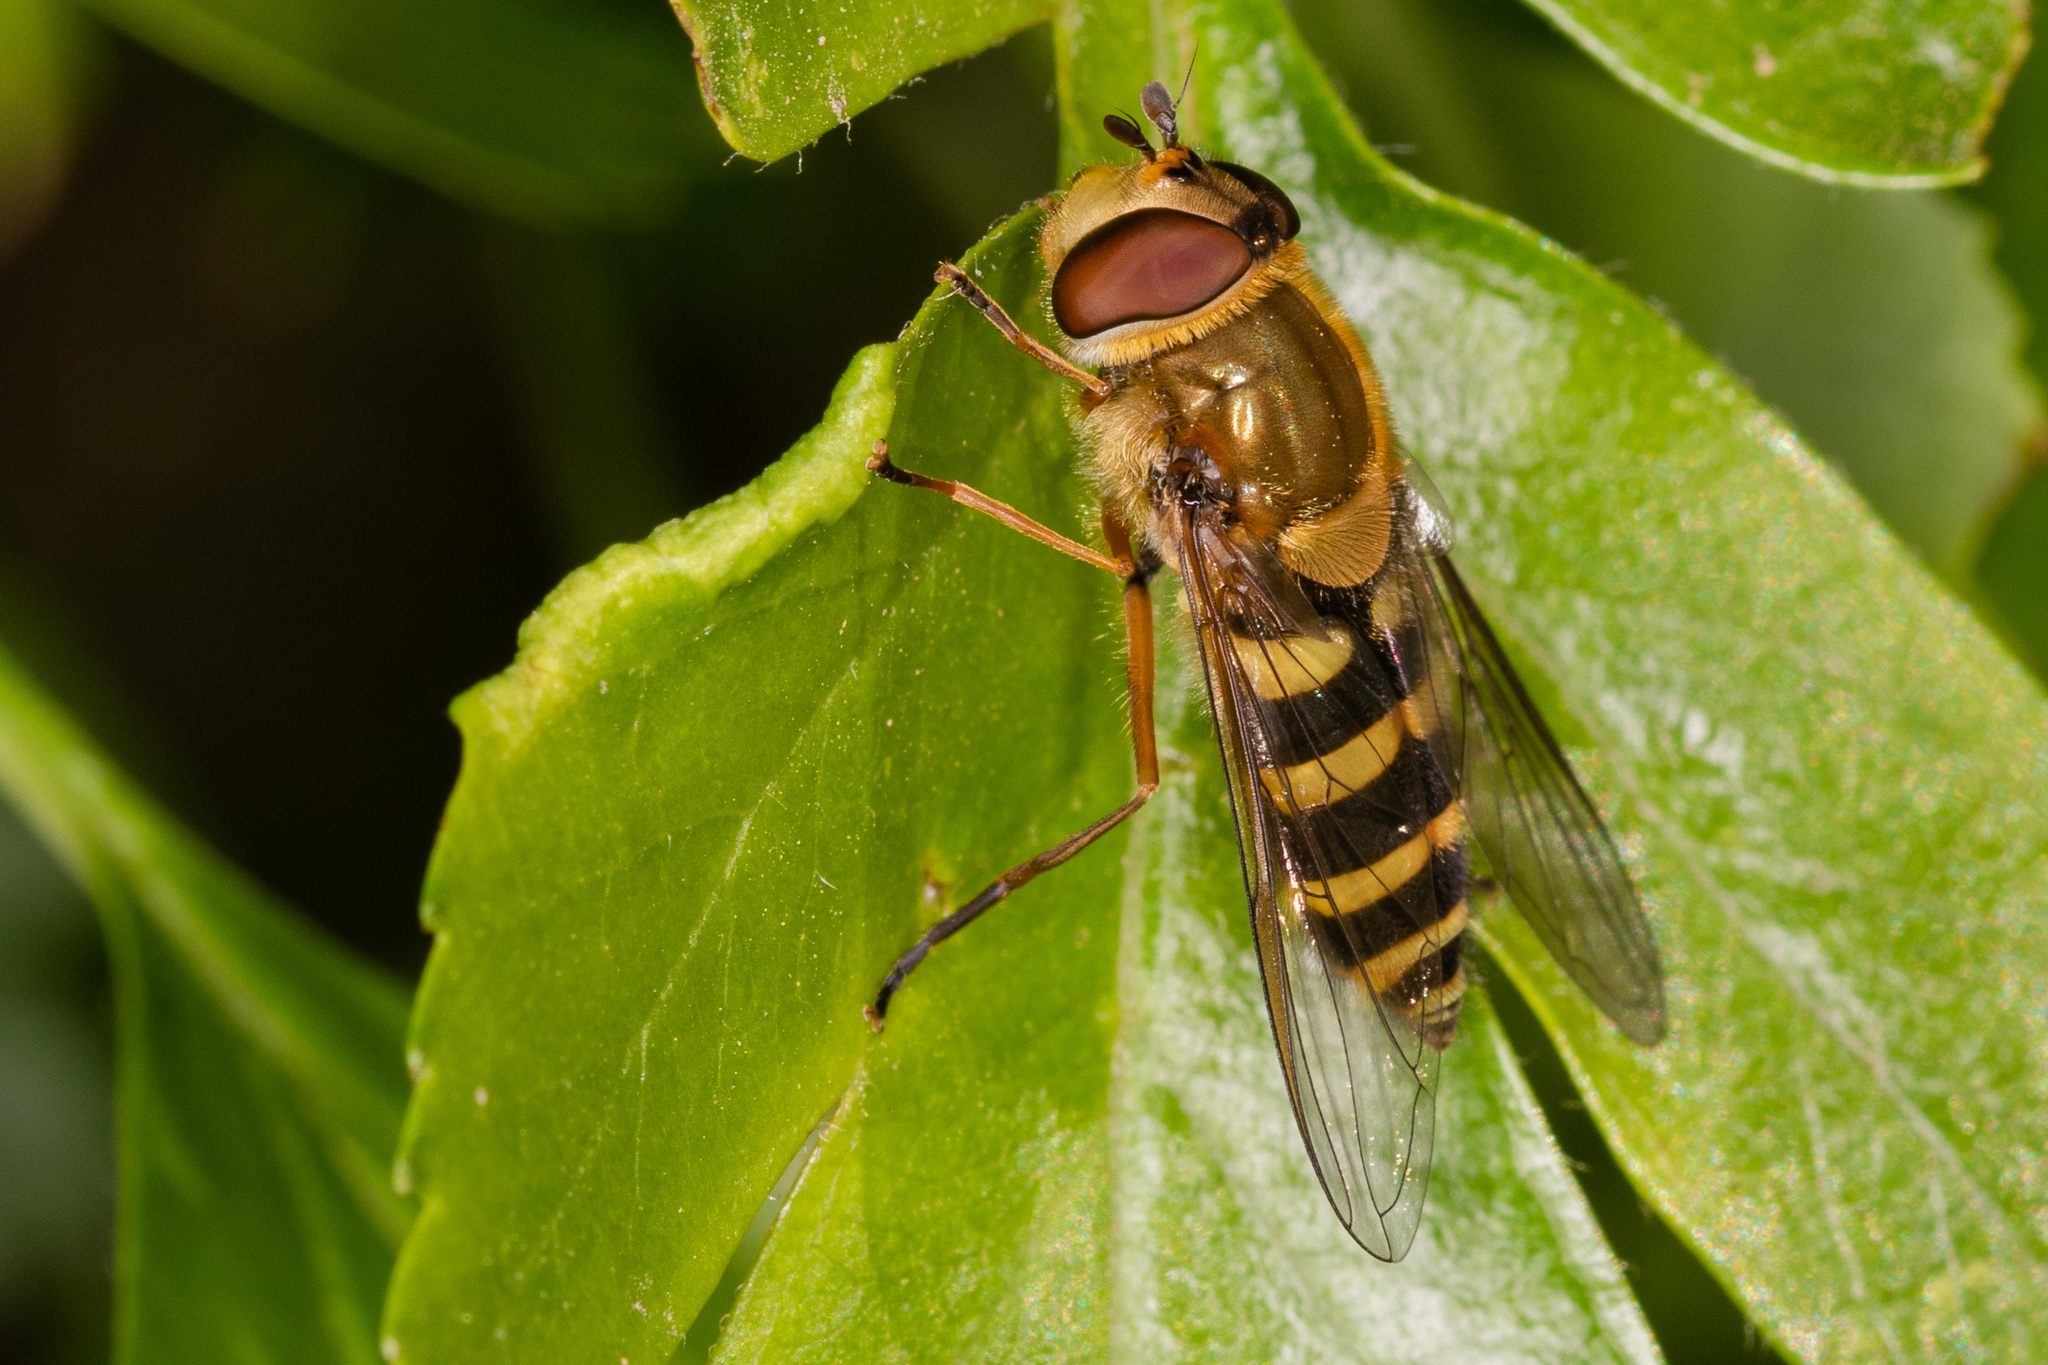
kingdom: Animalia
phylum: Arthropoda
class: Insecta
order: Diptera
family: Syrphidae
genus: Syrphus
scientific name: Syrphus ribesii
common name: Common flower fly
